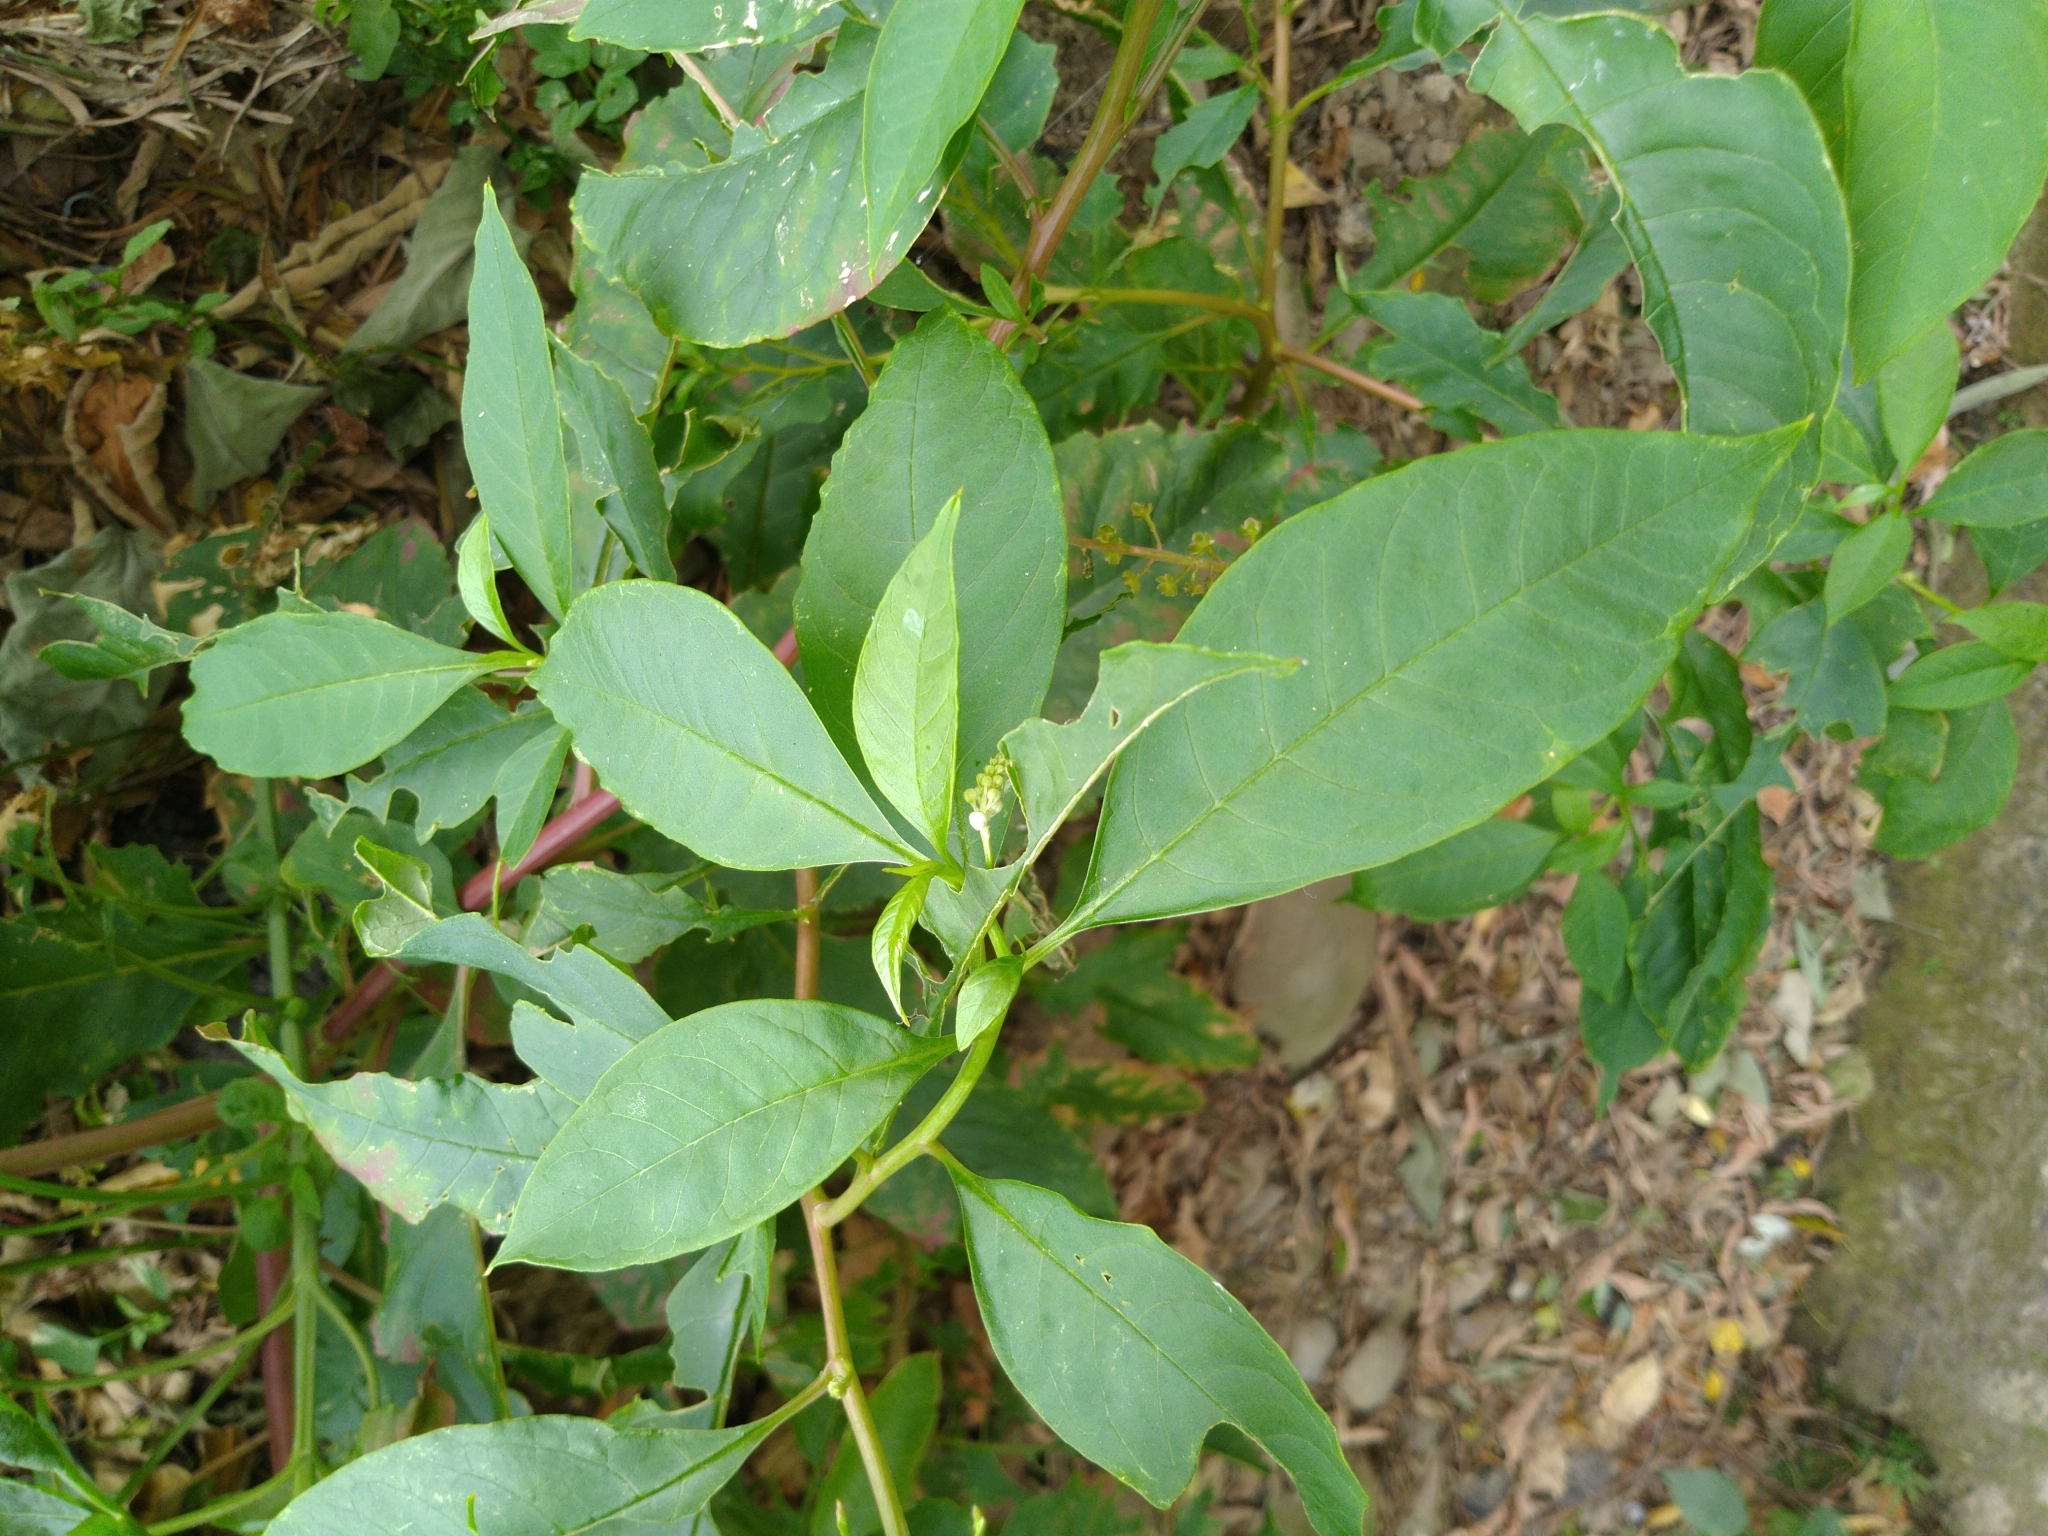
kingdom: Plantae
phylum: Tracheophyta
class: Magnoliopsida
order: Caryophyllales
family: Phytolaccaceae
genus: Phytolacca
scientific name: Phytolacca americana
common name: American pokeweed
